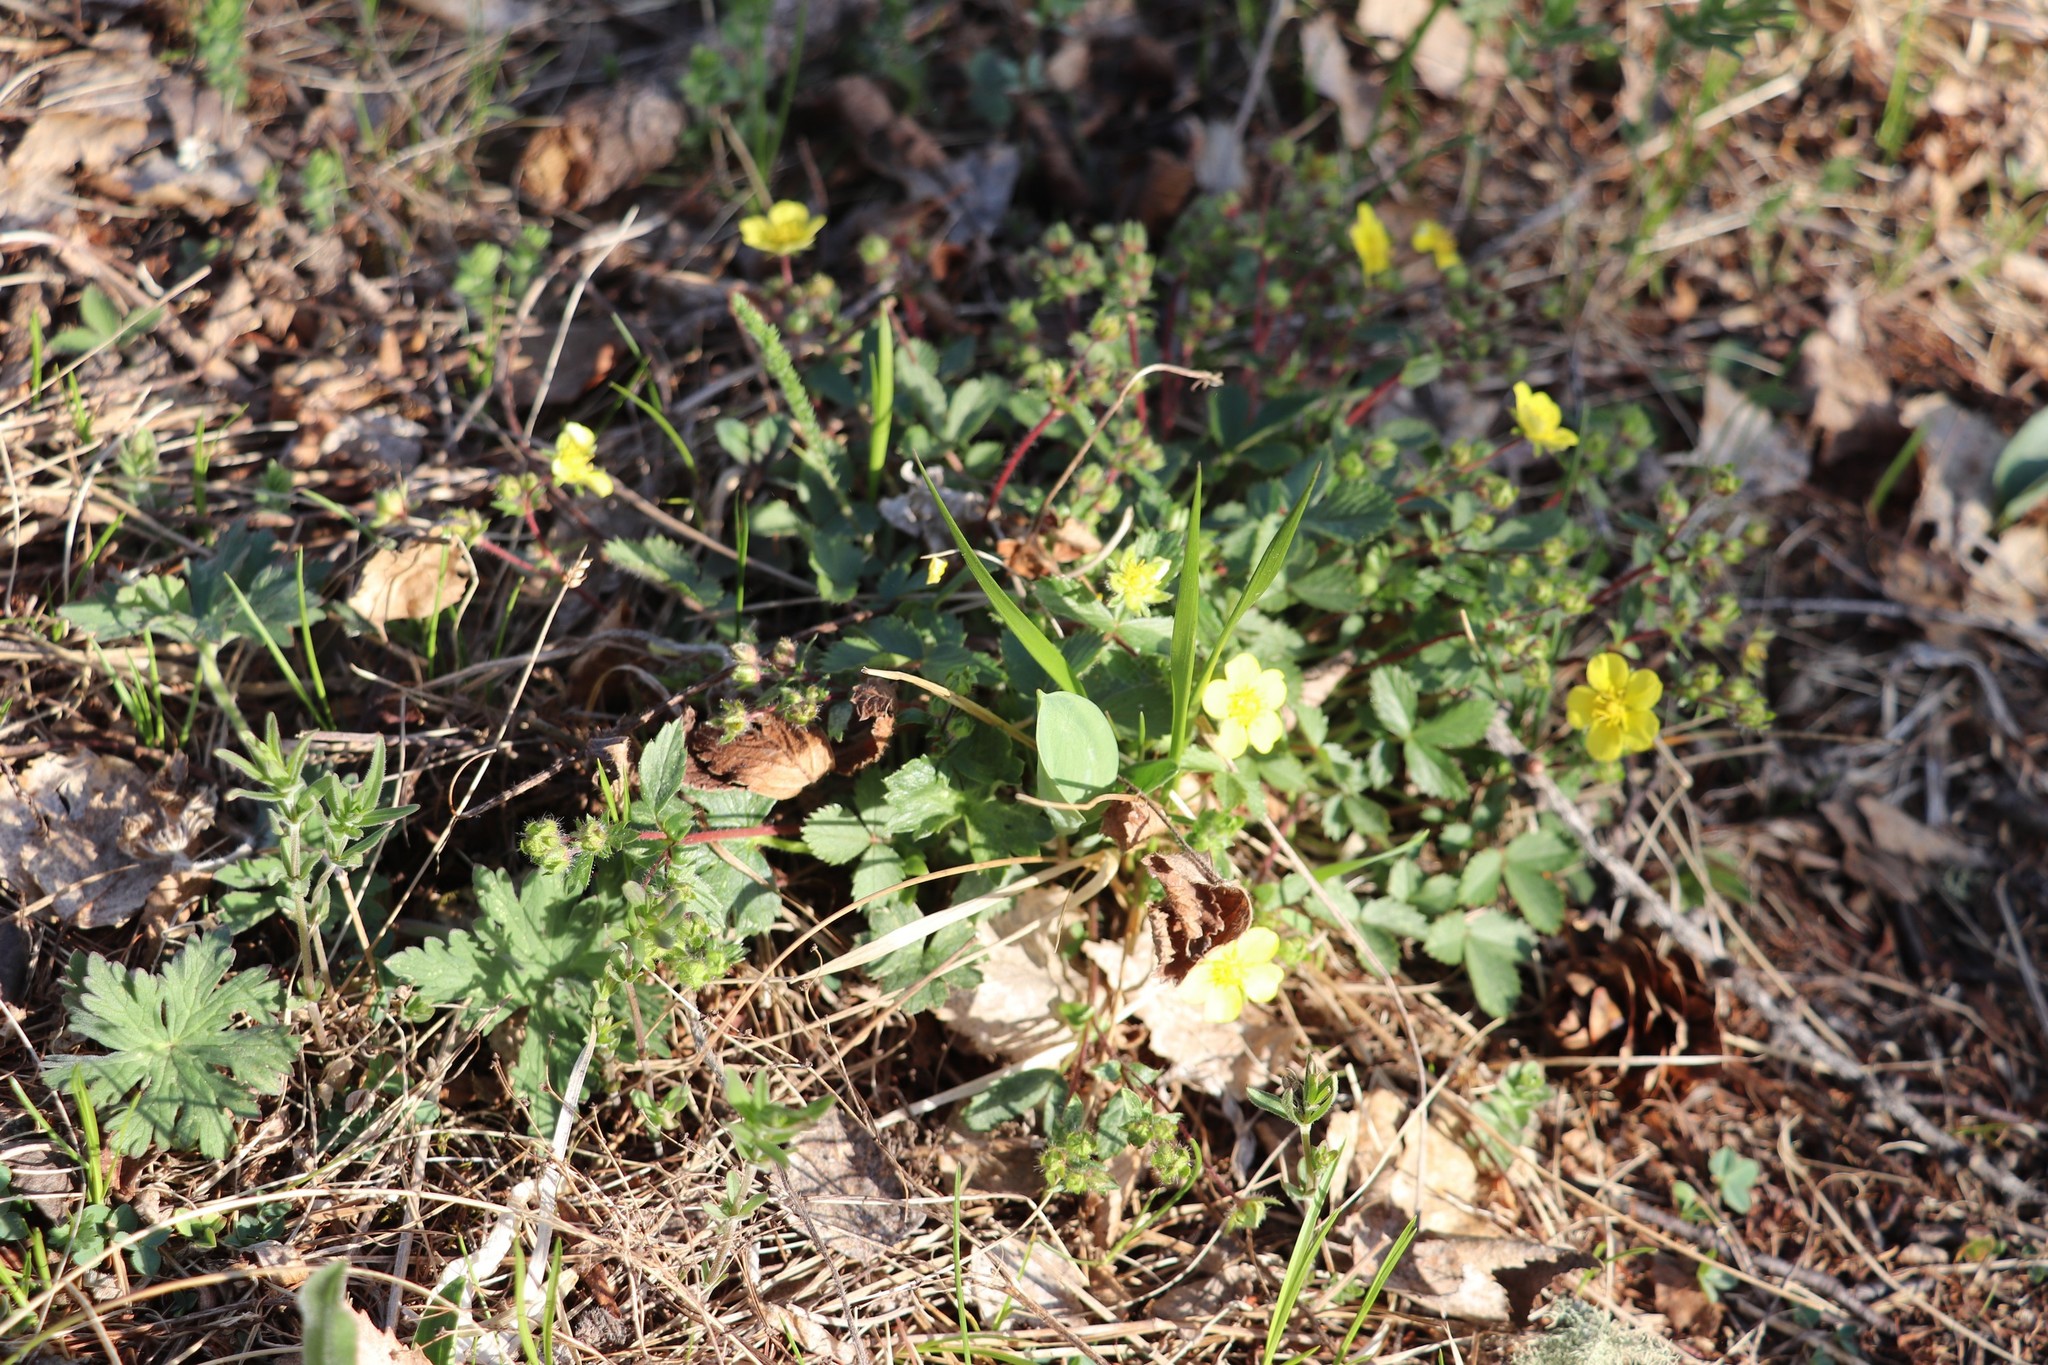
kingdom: Plantae
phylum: Tracheophyta
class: Magnoliopsida
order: Rosales
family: Rosaceae
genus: Potentilla
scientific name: Potentilla fragarioides
